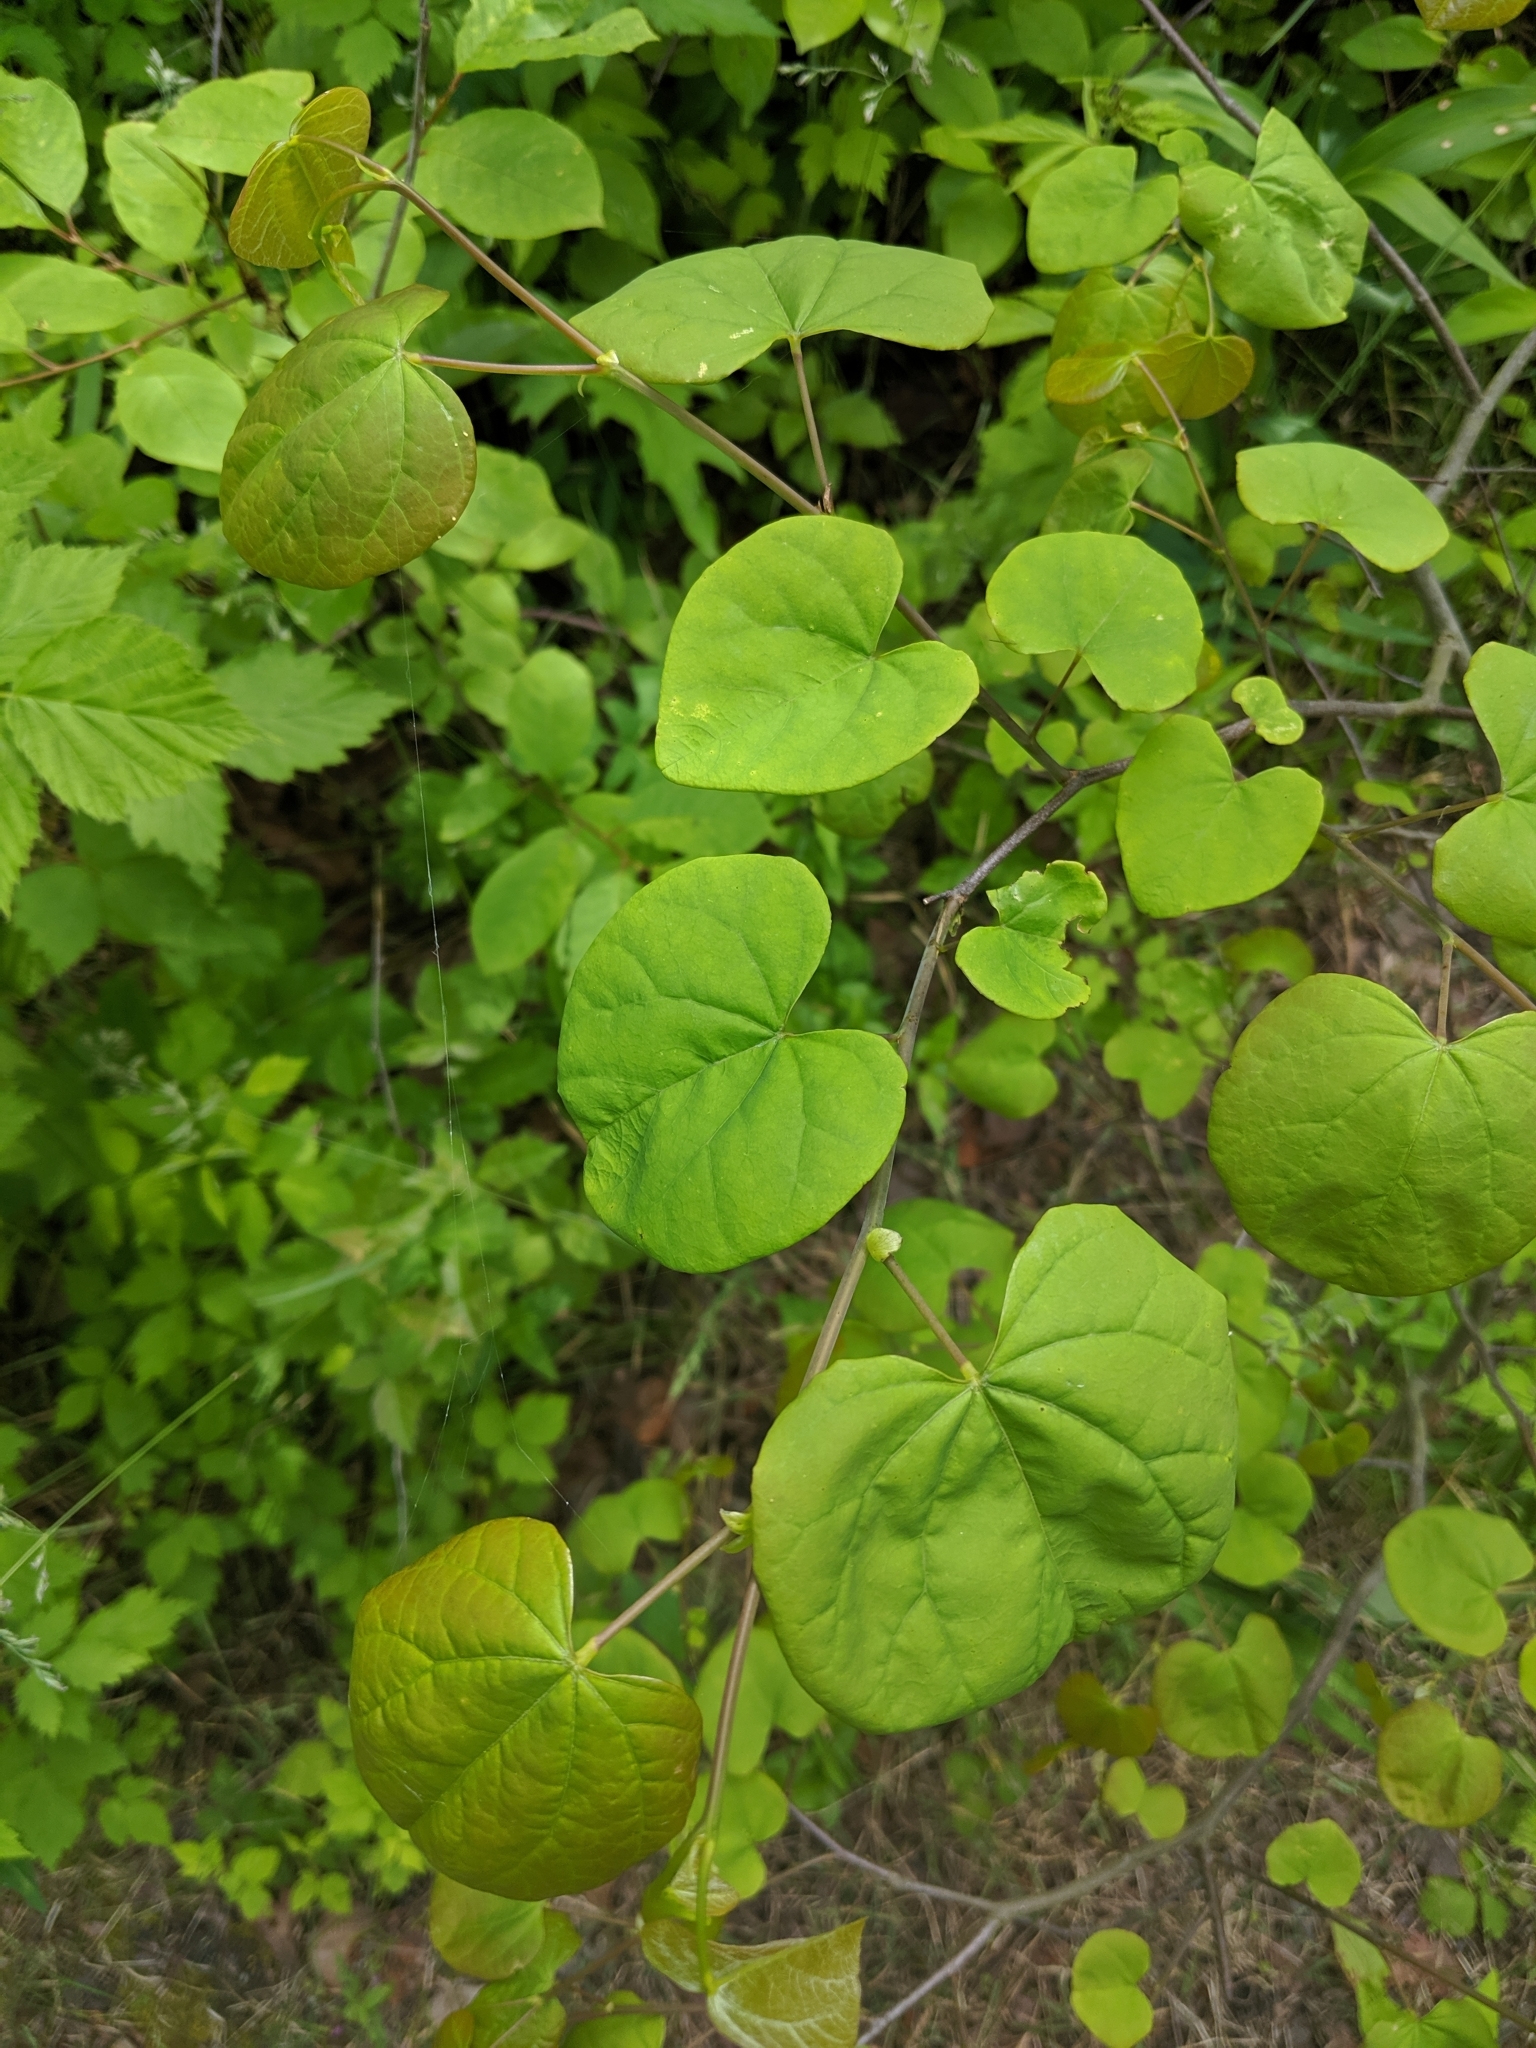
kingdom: Plantae
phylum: Tracheophyta
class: Magnoliopsida
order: Fabales
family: Fabaceae
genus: Cercis
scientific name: Cercis canadensis
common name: Eastern redbud
